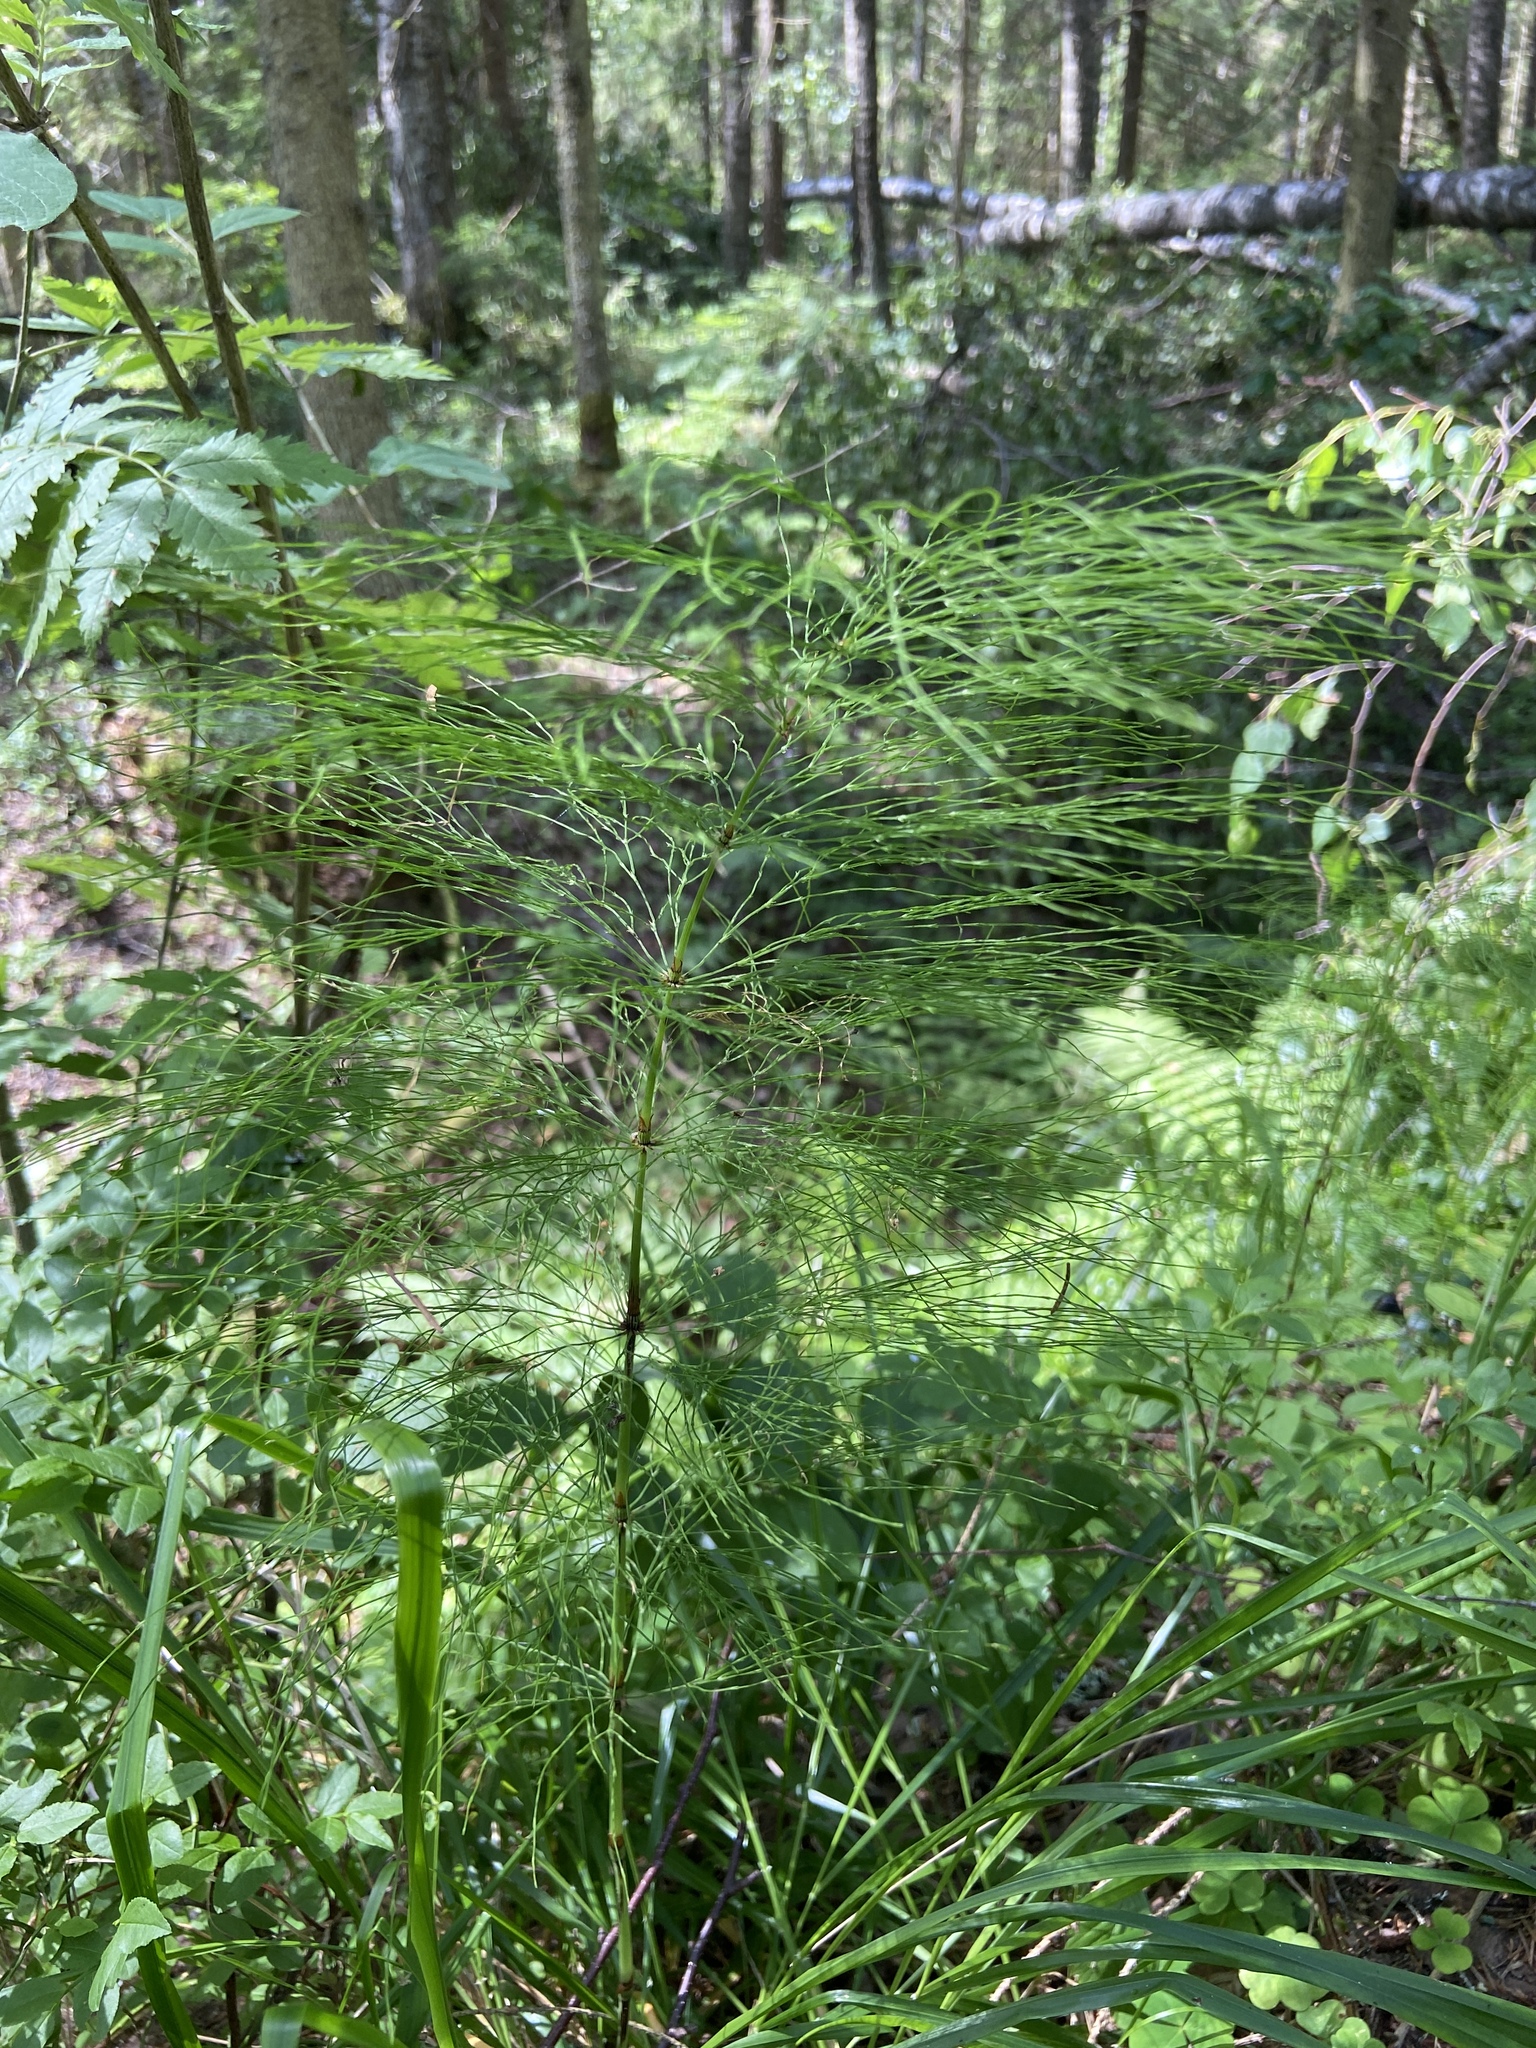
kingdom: Plantae
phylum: Tracheophyta
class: Polypodiopsida
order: Equisetales
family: Equisetaceae
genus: Equisetum
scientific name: Equisetum sylvaticum
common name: Wood horsetail
